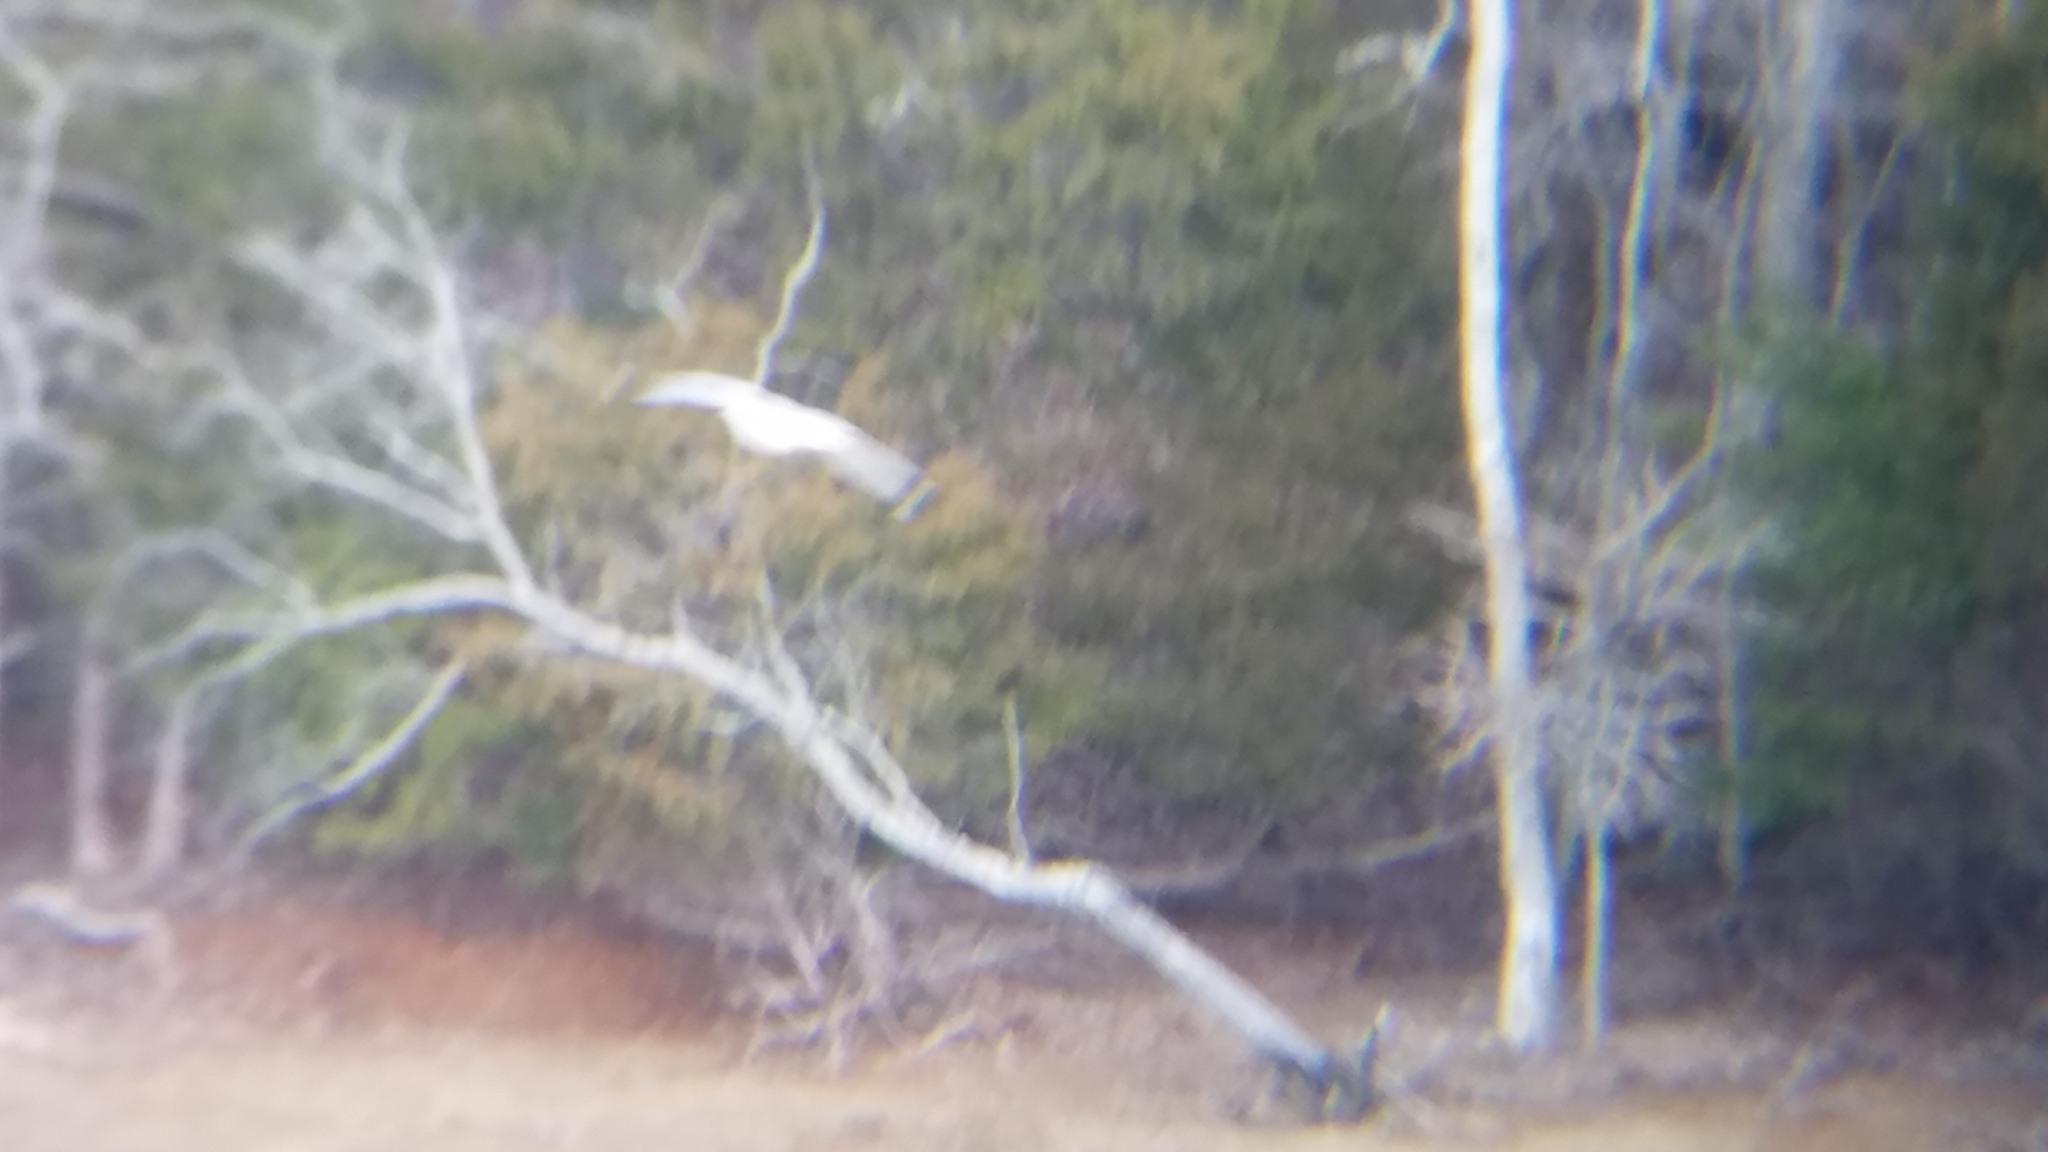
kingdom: Animalia
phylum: Chordata
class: Aves
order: Charadriiformes
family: Laridae
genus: Larus
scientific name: Larus delawarensis
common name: Ring-billed gull
